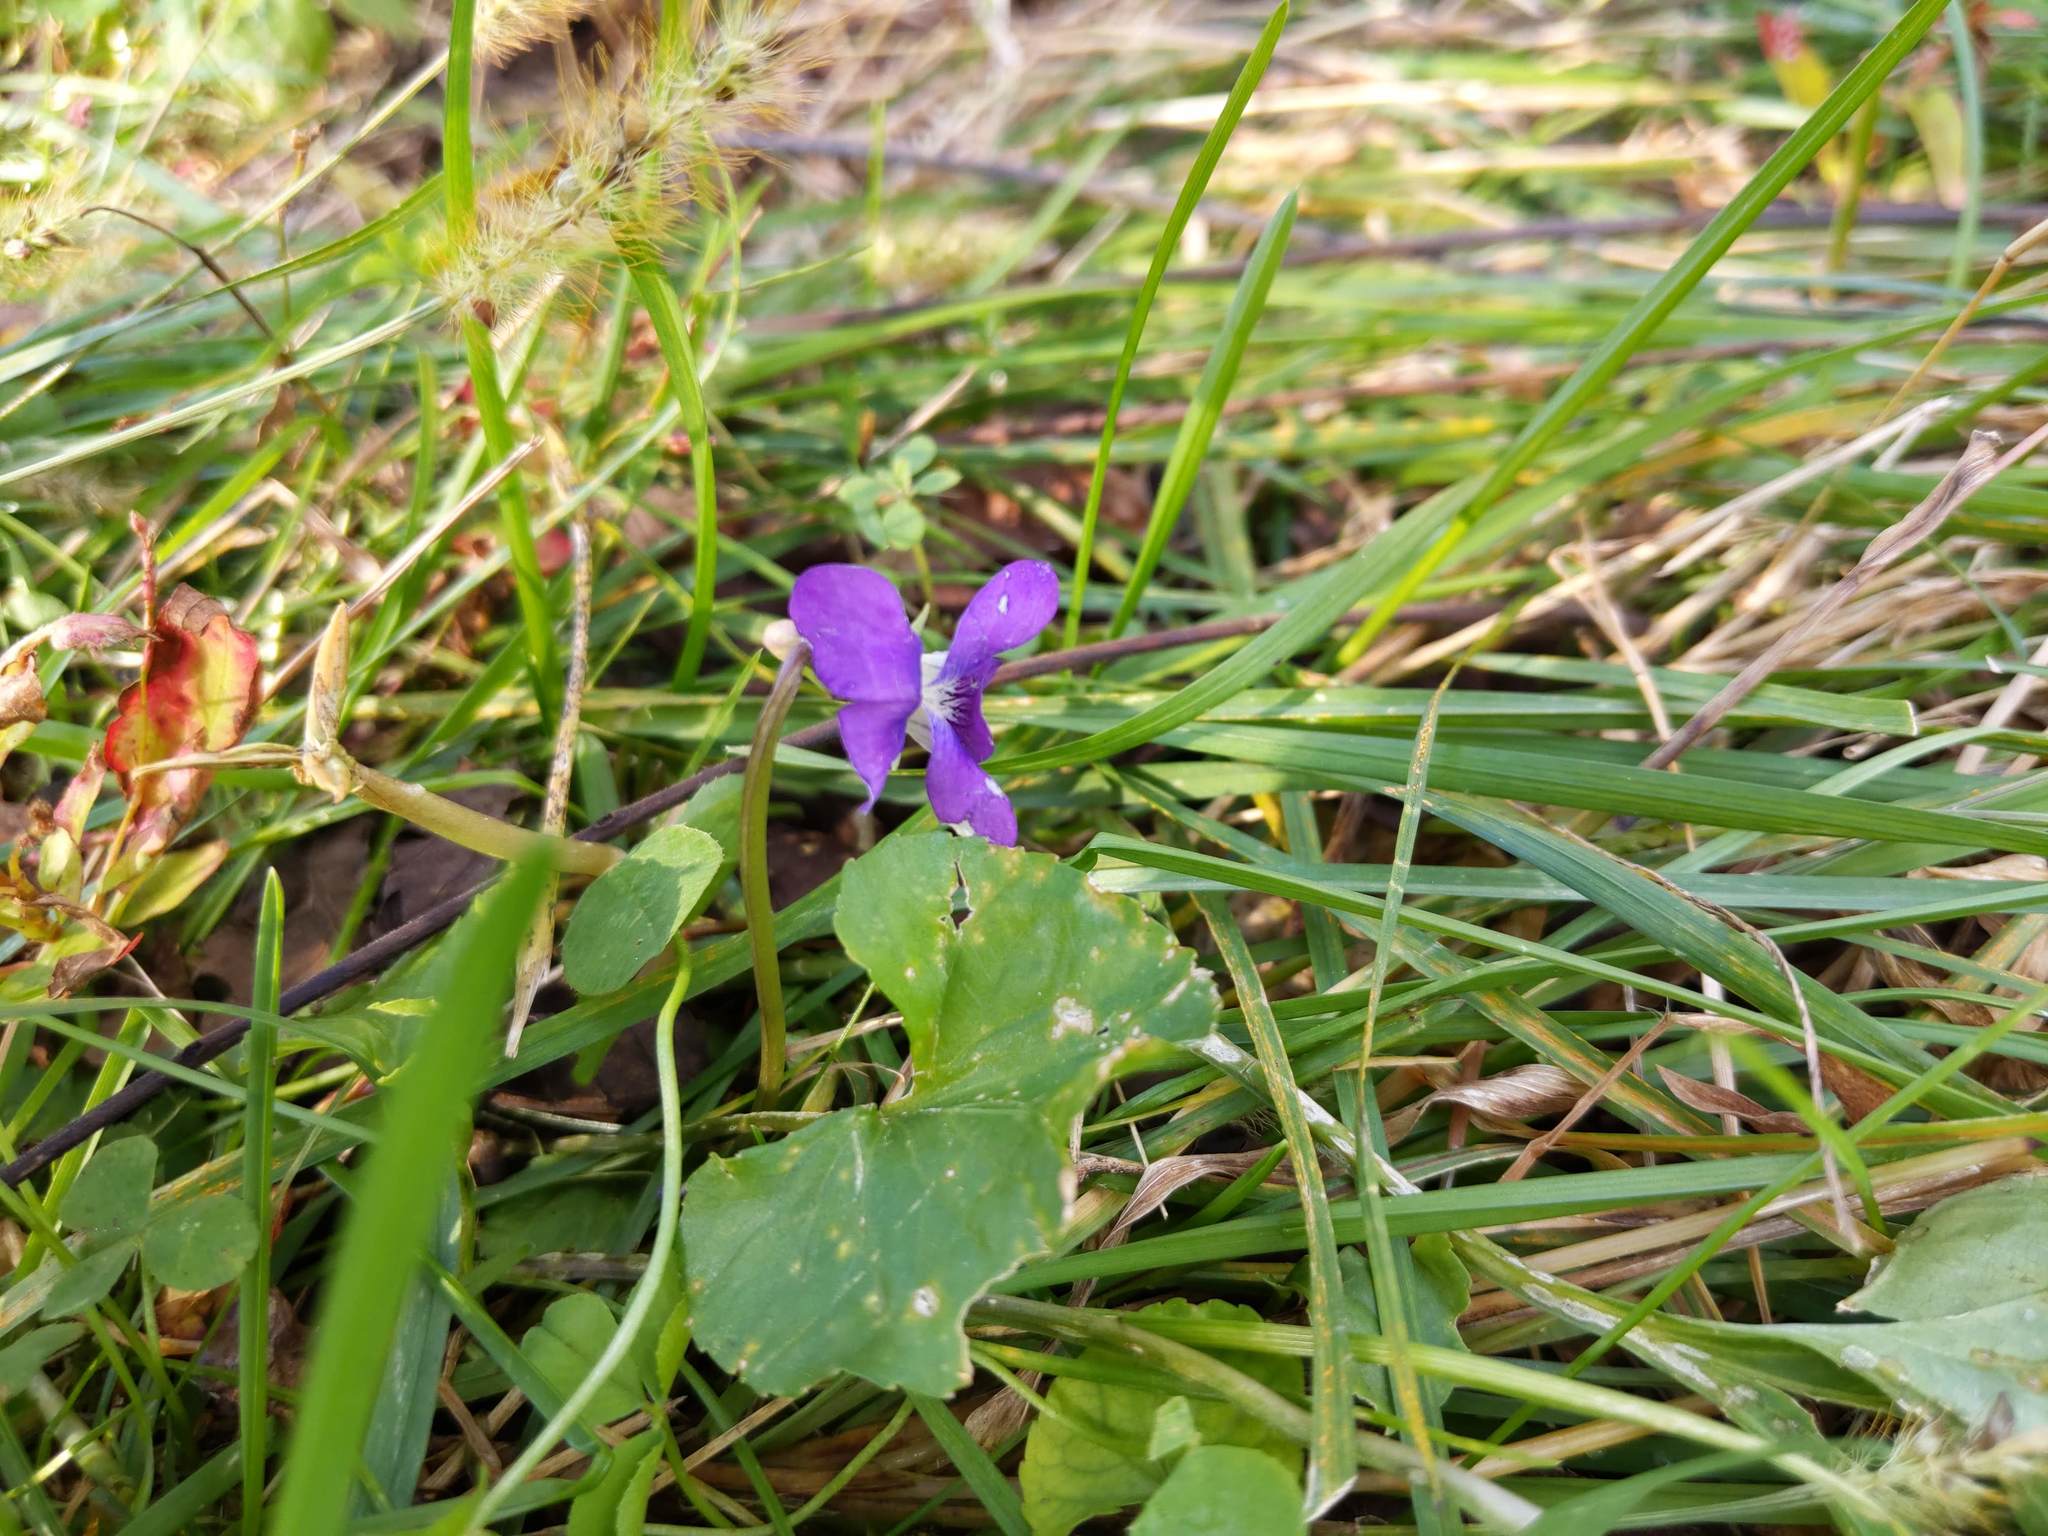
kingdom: Plantae
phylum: Tracheophyta
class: Magnoliopsida
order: Malpighiales
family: Violaceae
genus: Viola
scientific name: Viola sororia
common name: Dooryard violet
